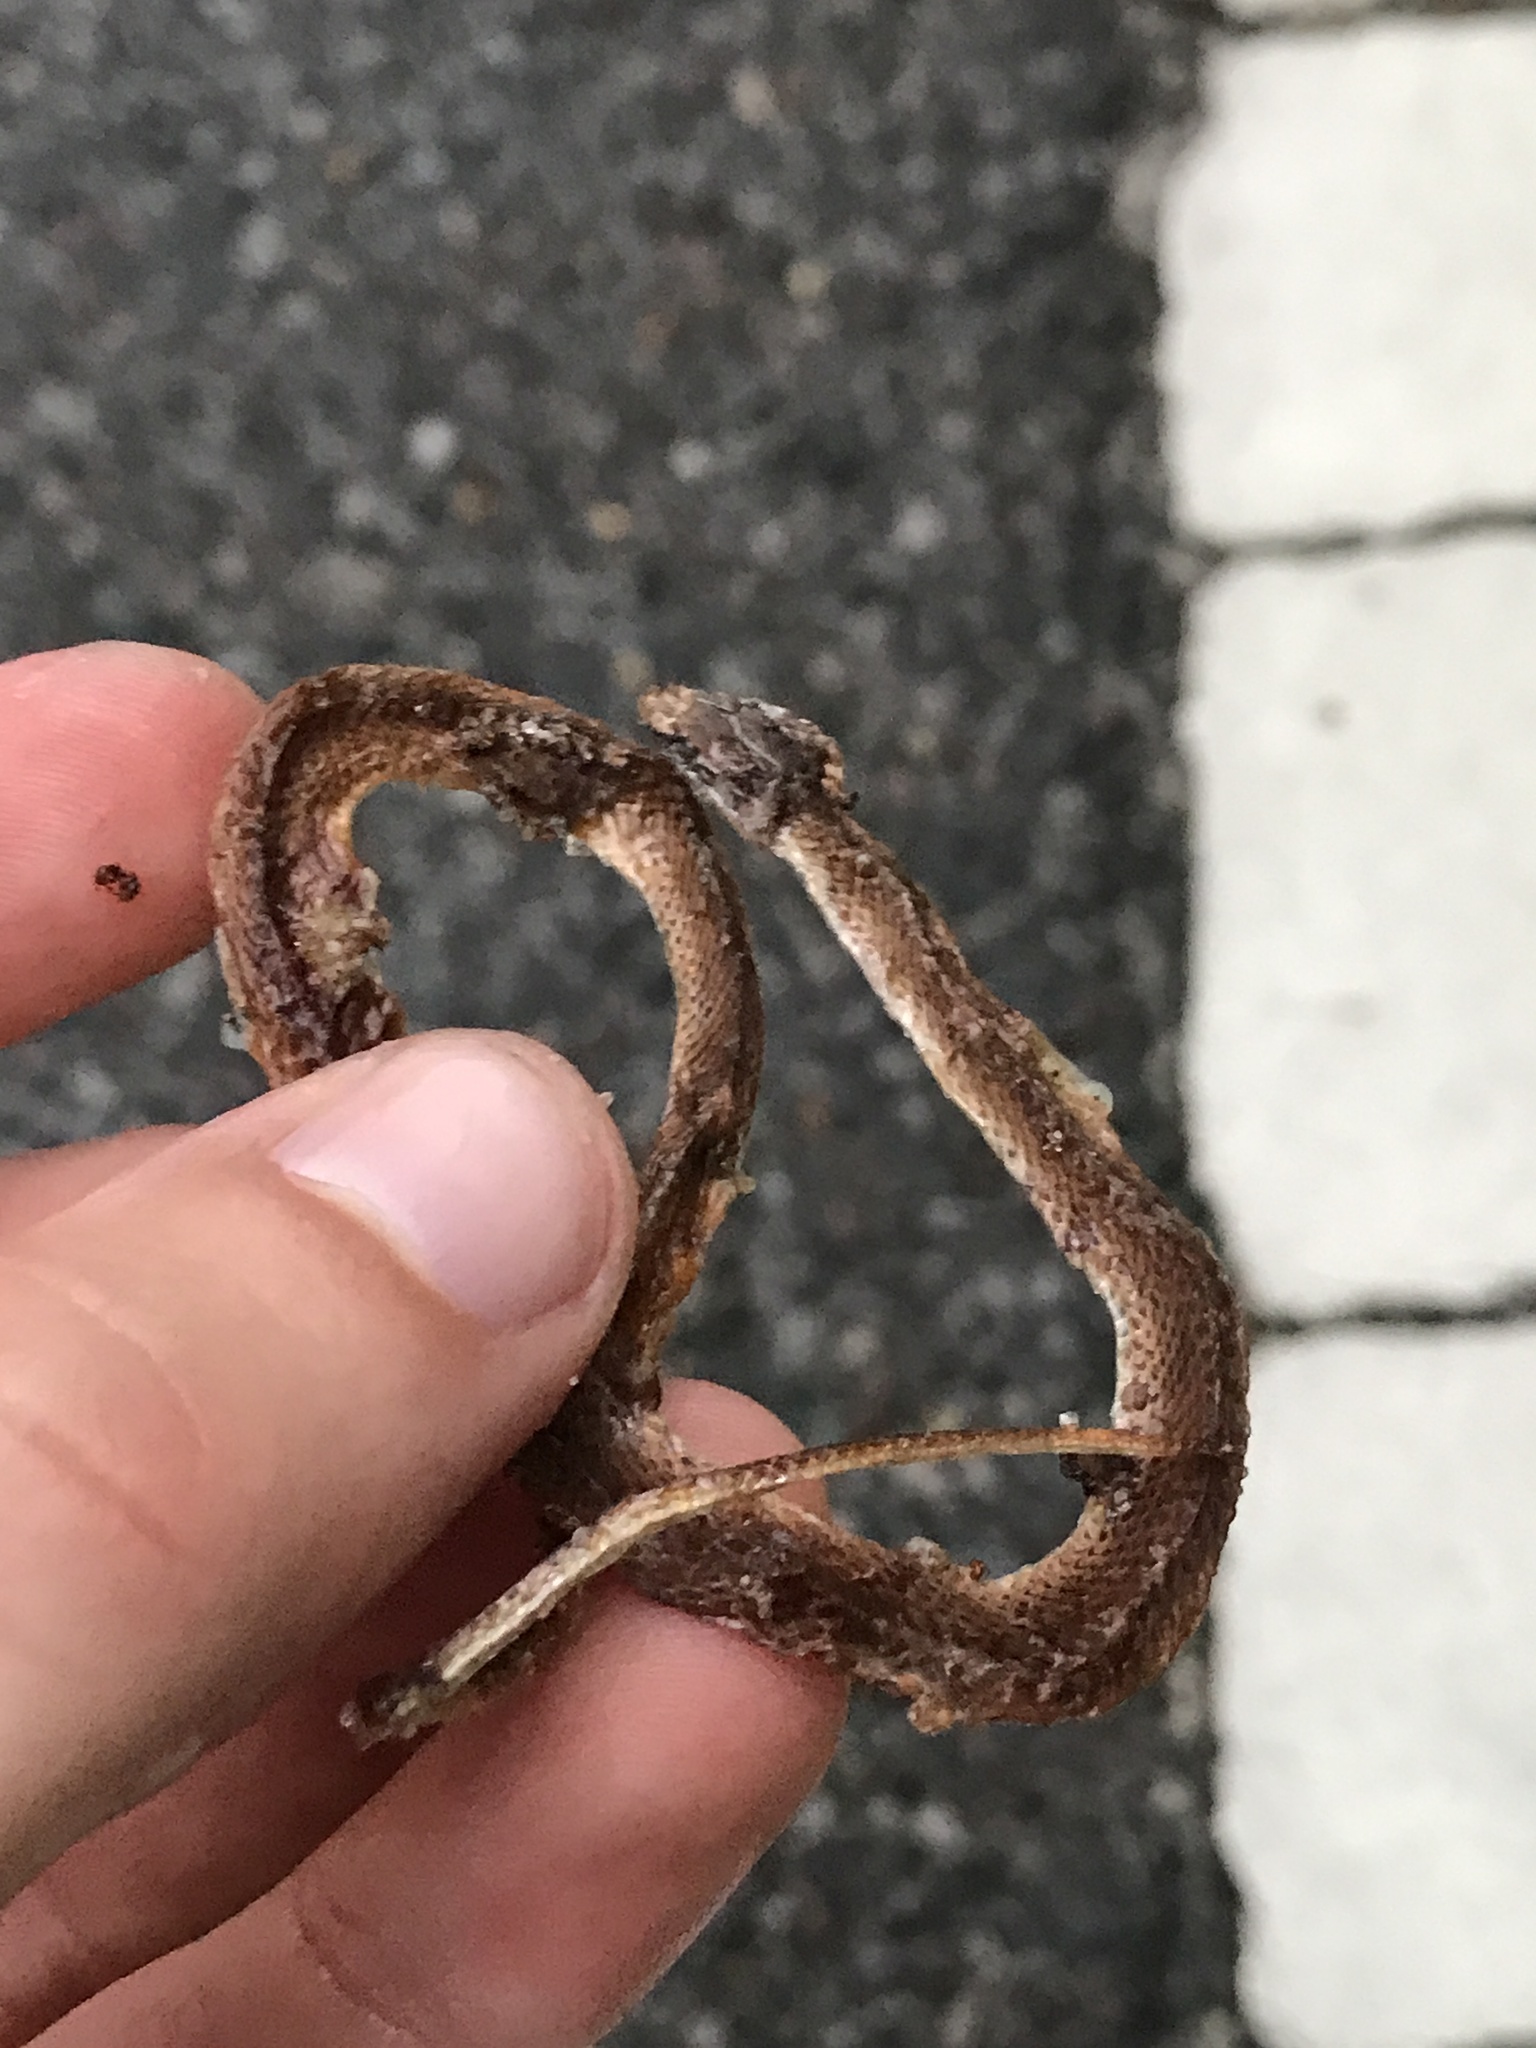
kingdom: Animalia
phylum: Chordata
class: Squamata
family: Colubridae
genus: Rhadinaea
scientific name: Rhadinaea flavilata
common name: Pine woods littersnake
